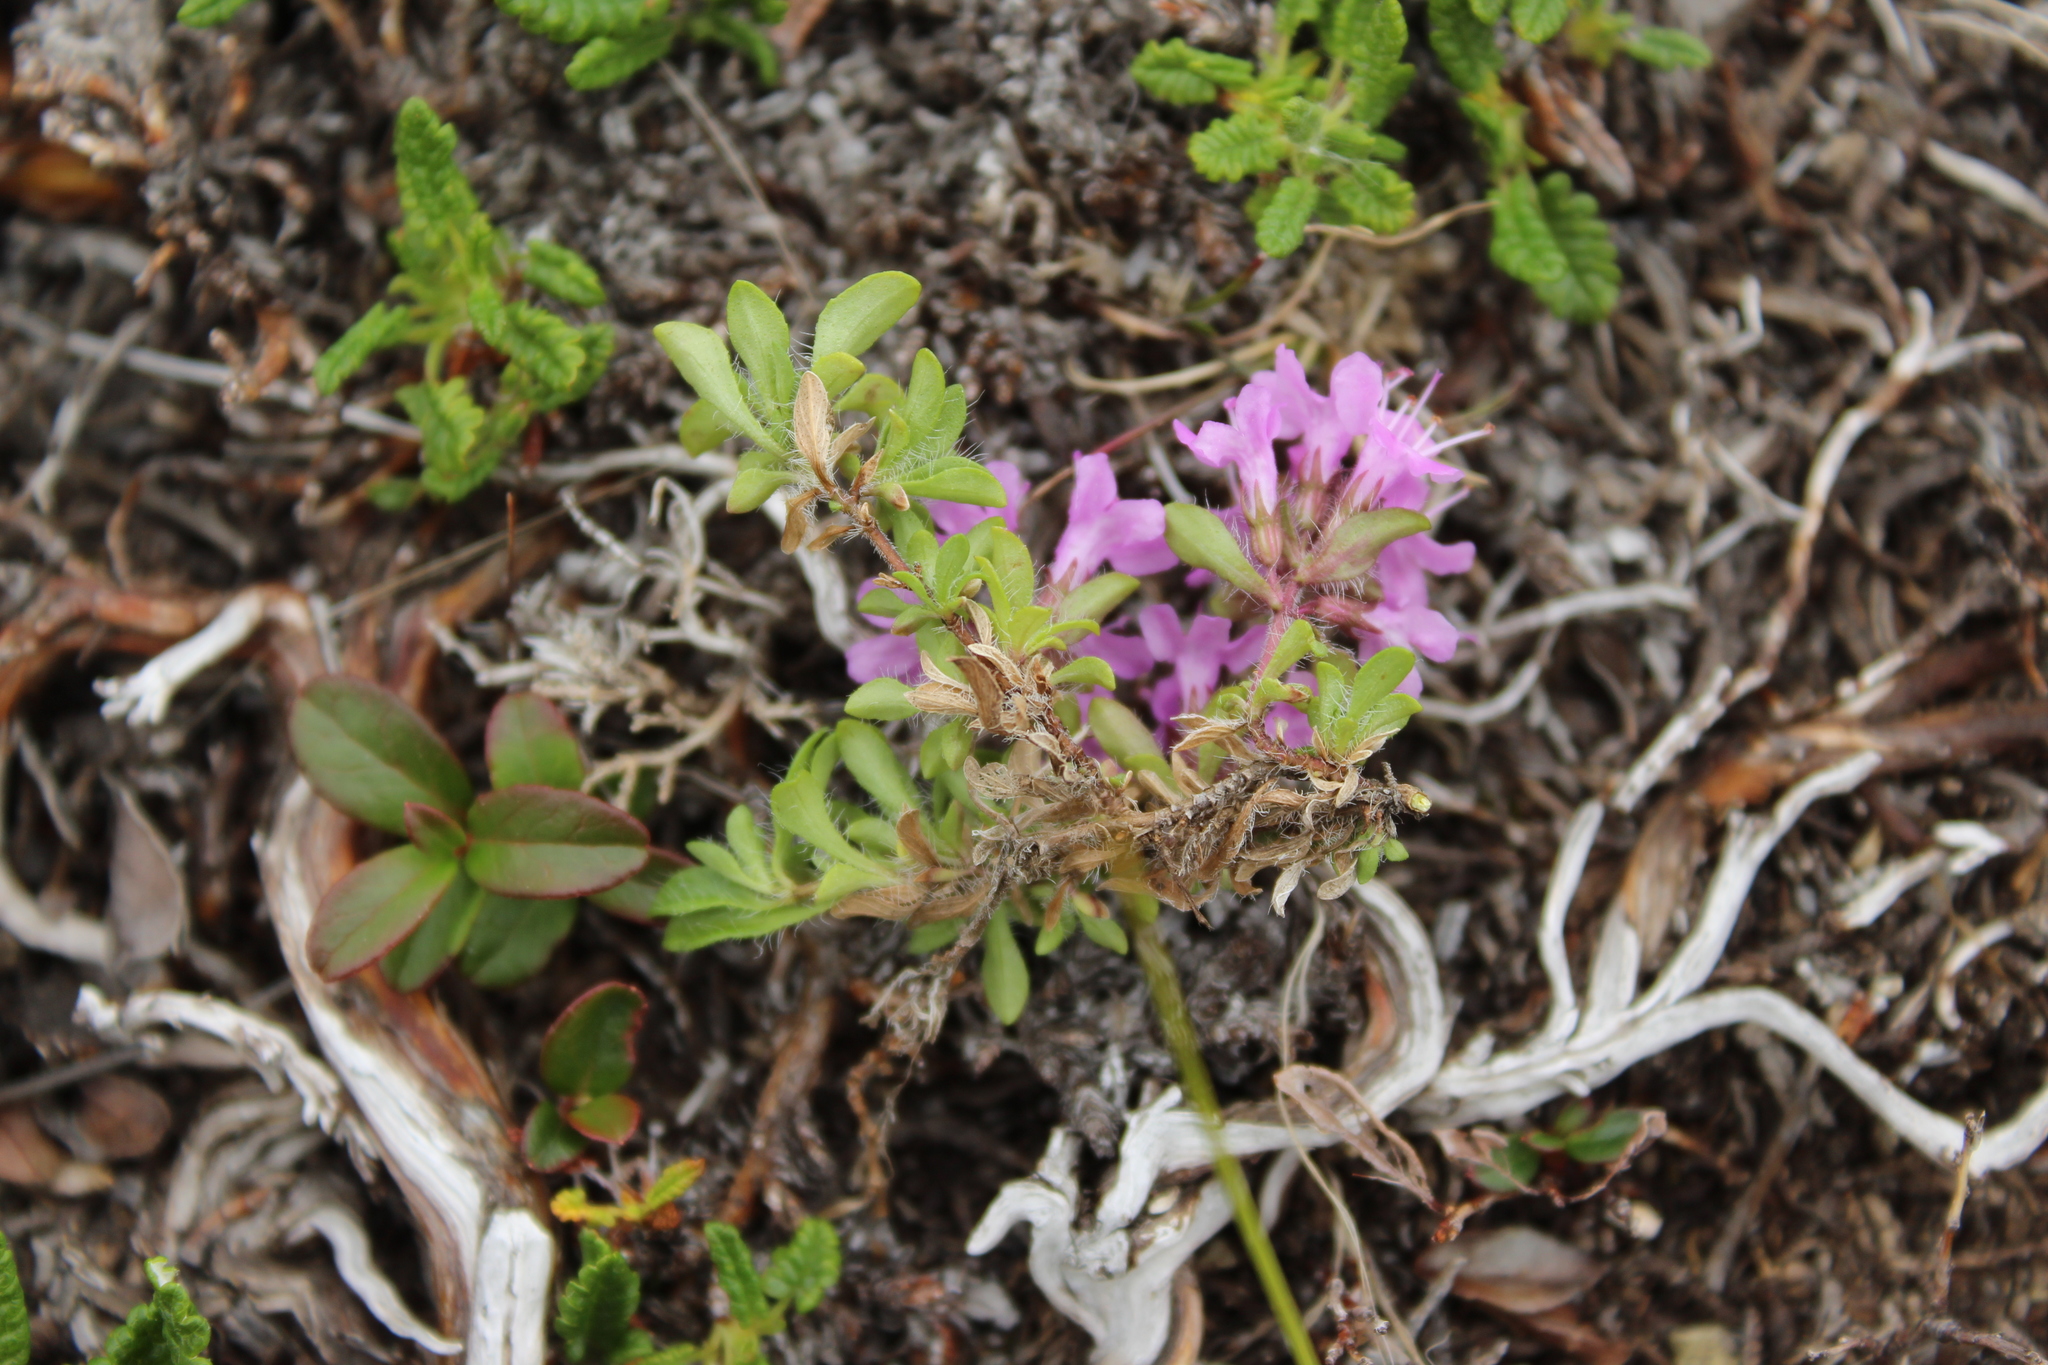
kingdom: Plantae
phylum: Tracheophyta
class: Magnoliopsida
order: Lamiales
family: Lamiaceae
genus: Thymus
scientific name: Thymus reverdattoanus
